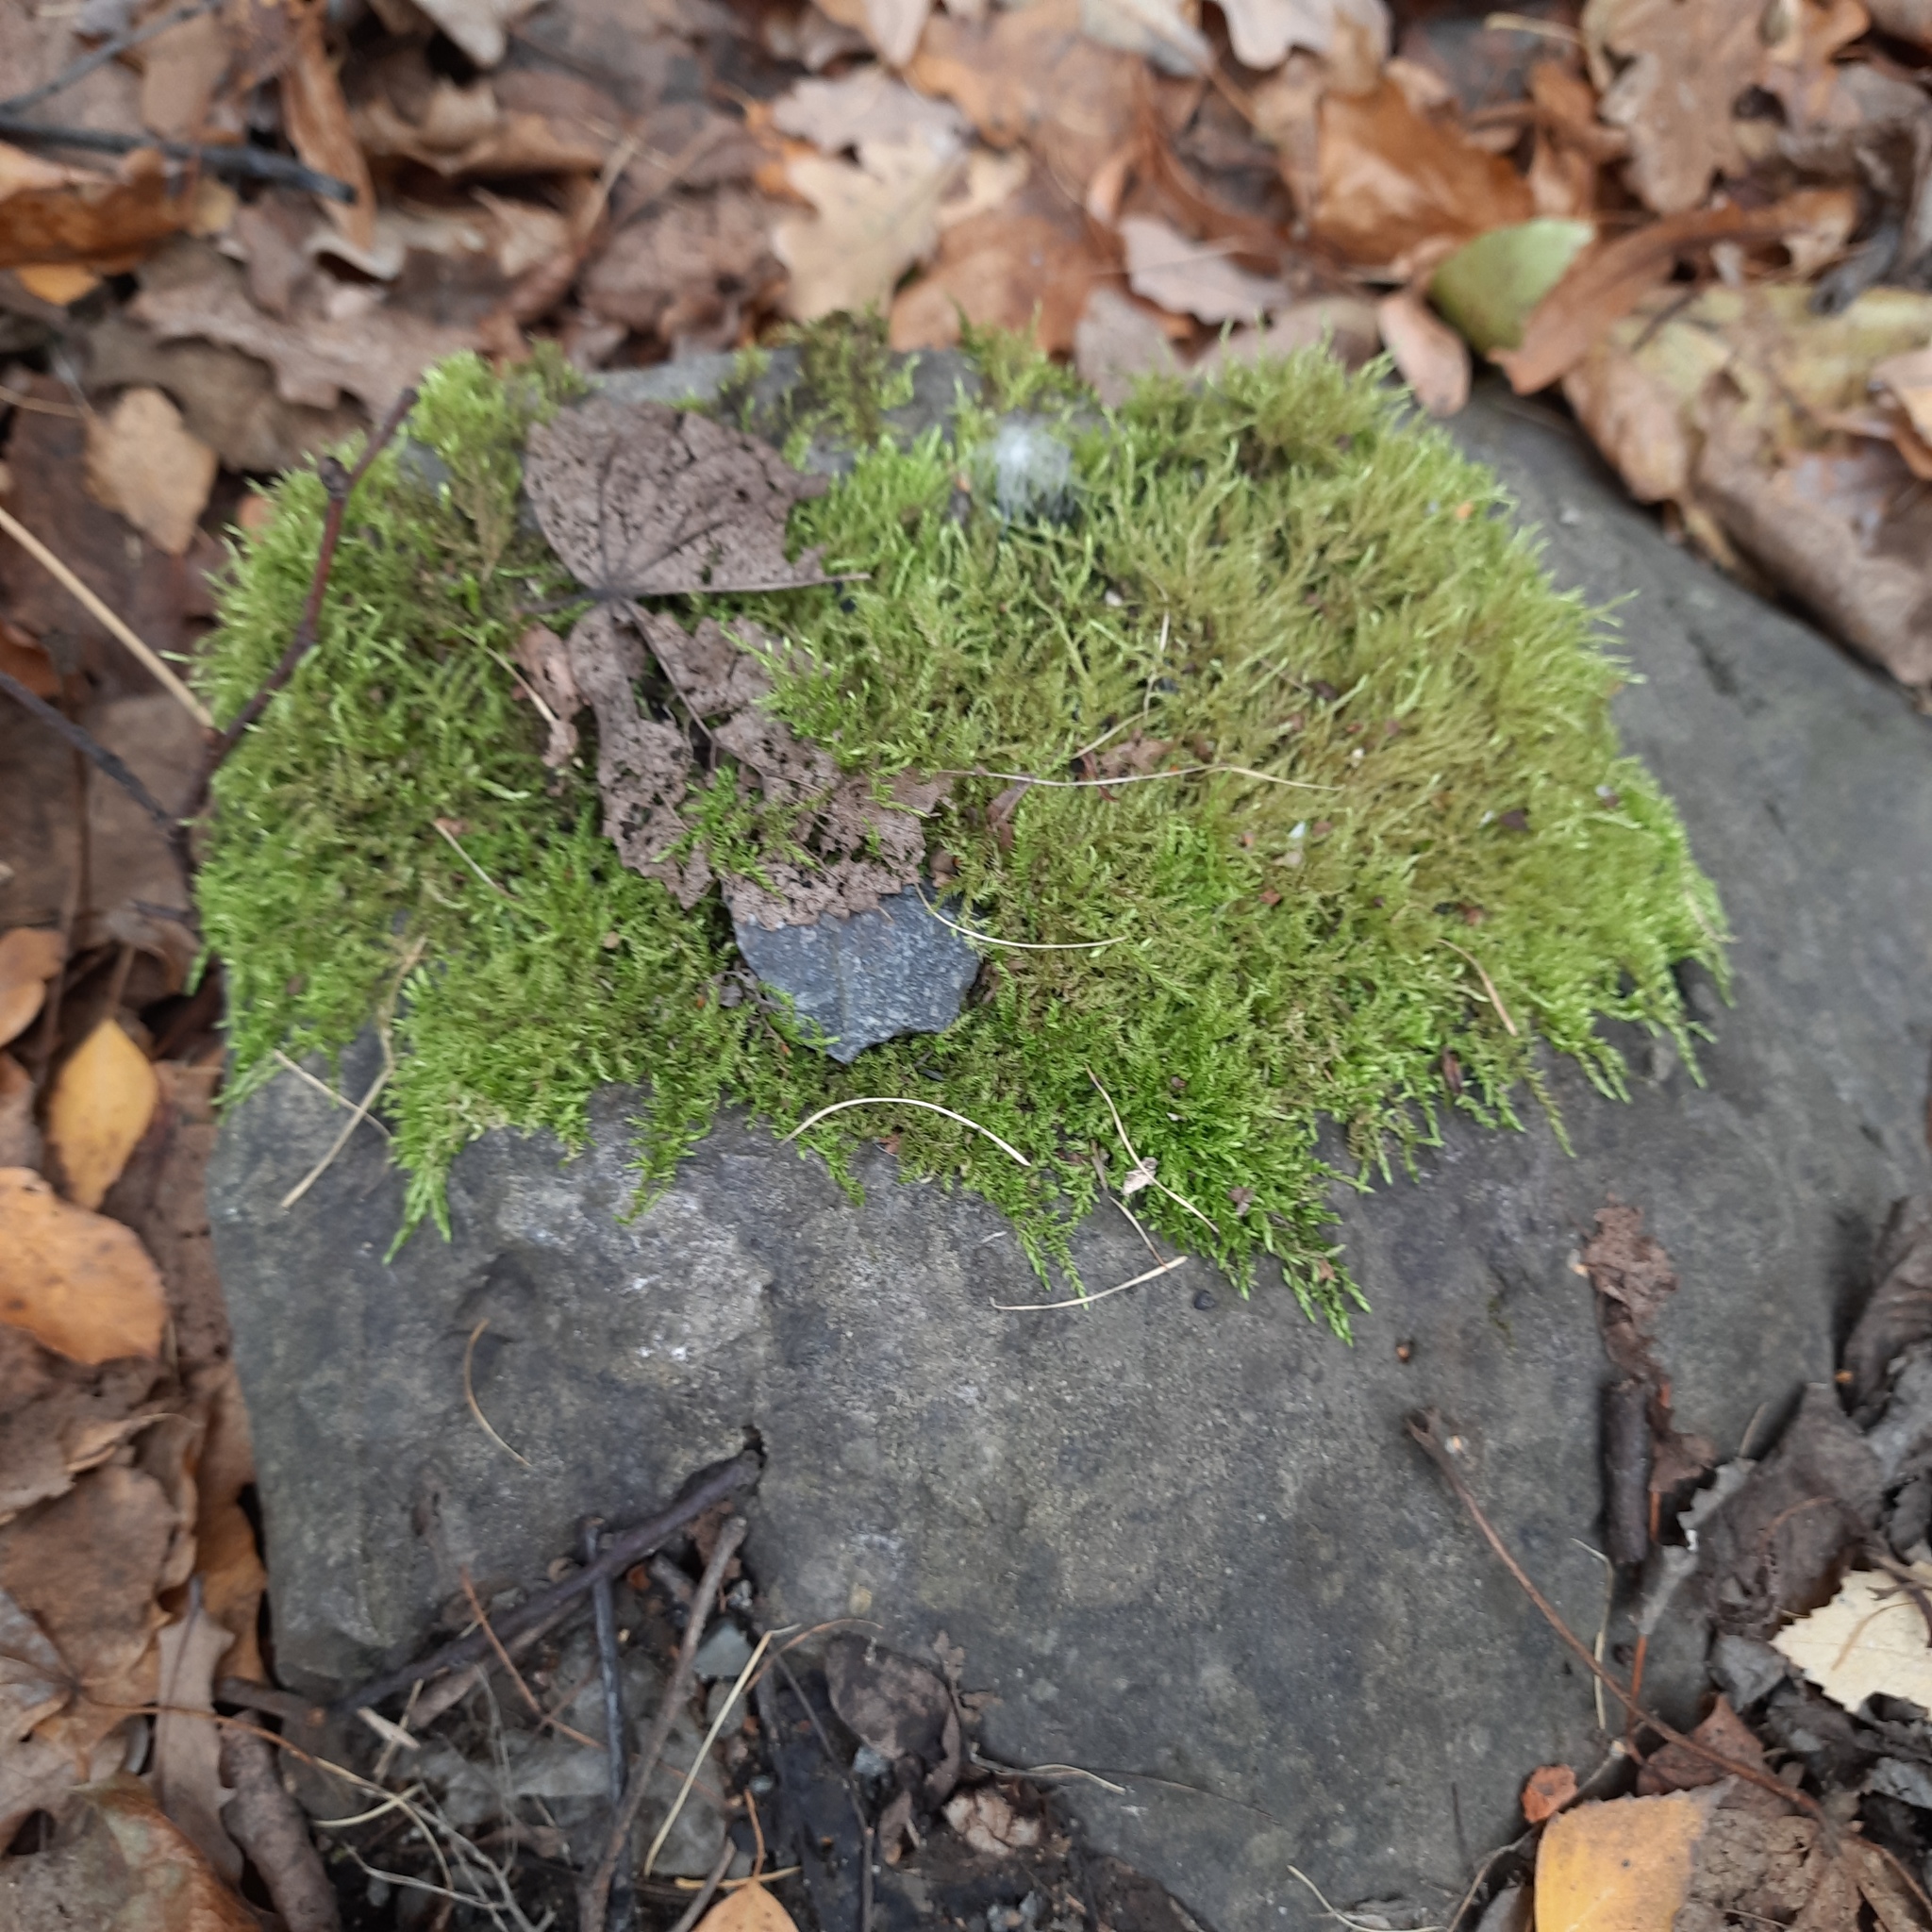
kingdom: Plantae
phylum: Bryophyta
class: Bryopsida
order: Hypnales
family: Amblystegiaceae
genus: Amblystegium
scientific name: Amblystegium serpens
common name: Jurkatzka's feather moss
